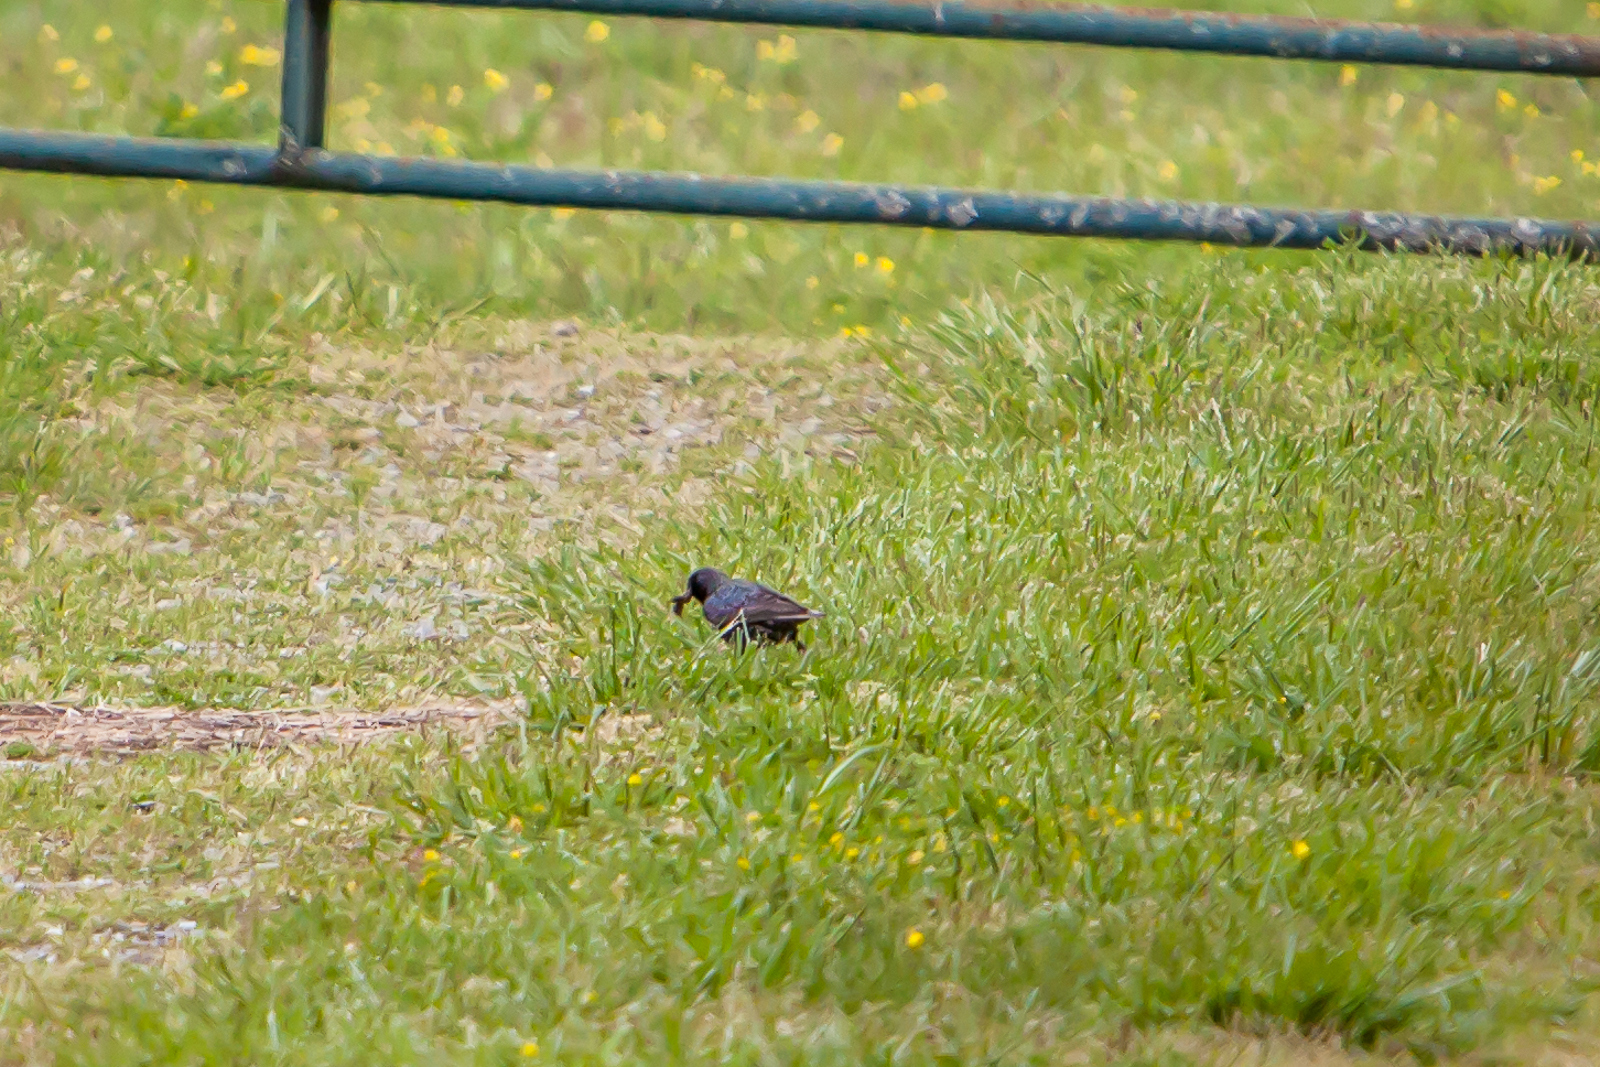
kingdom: Animalia
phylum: Chordata
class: Aves
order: Passeriformes
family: Sturnidae
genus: Sturnus
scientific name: Sturnus vulgaris
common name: Common starling
